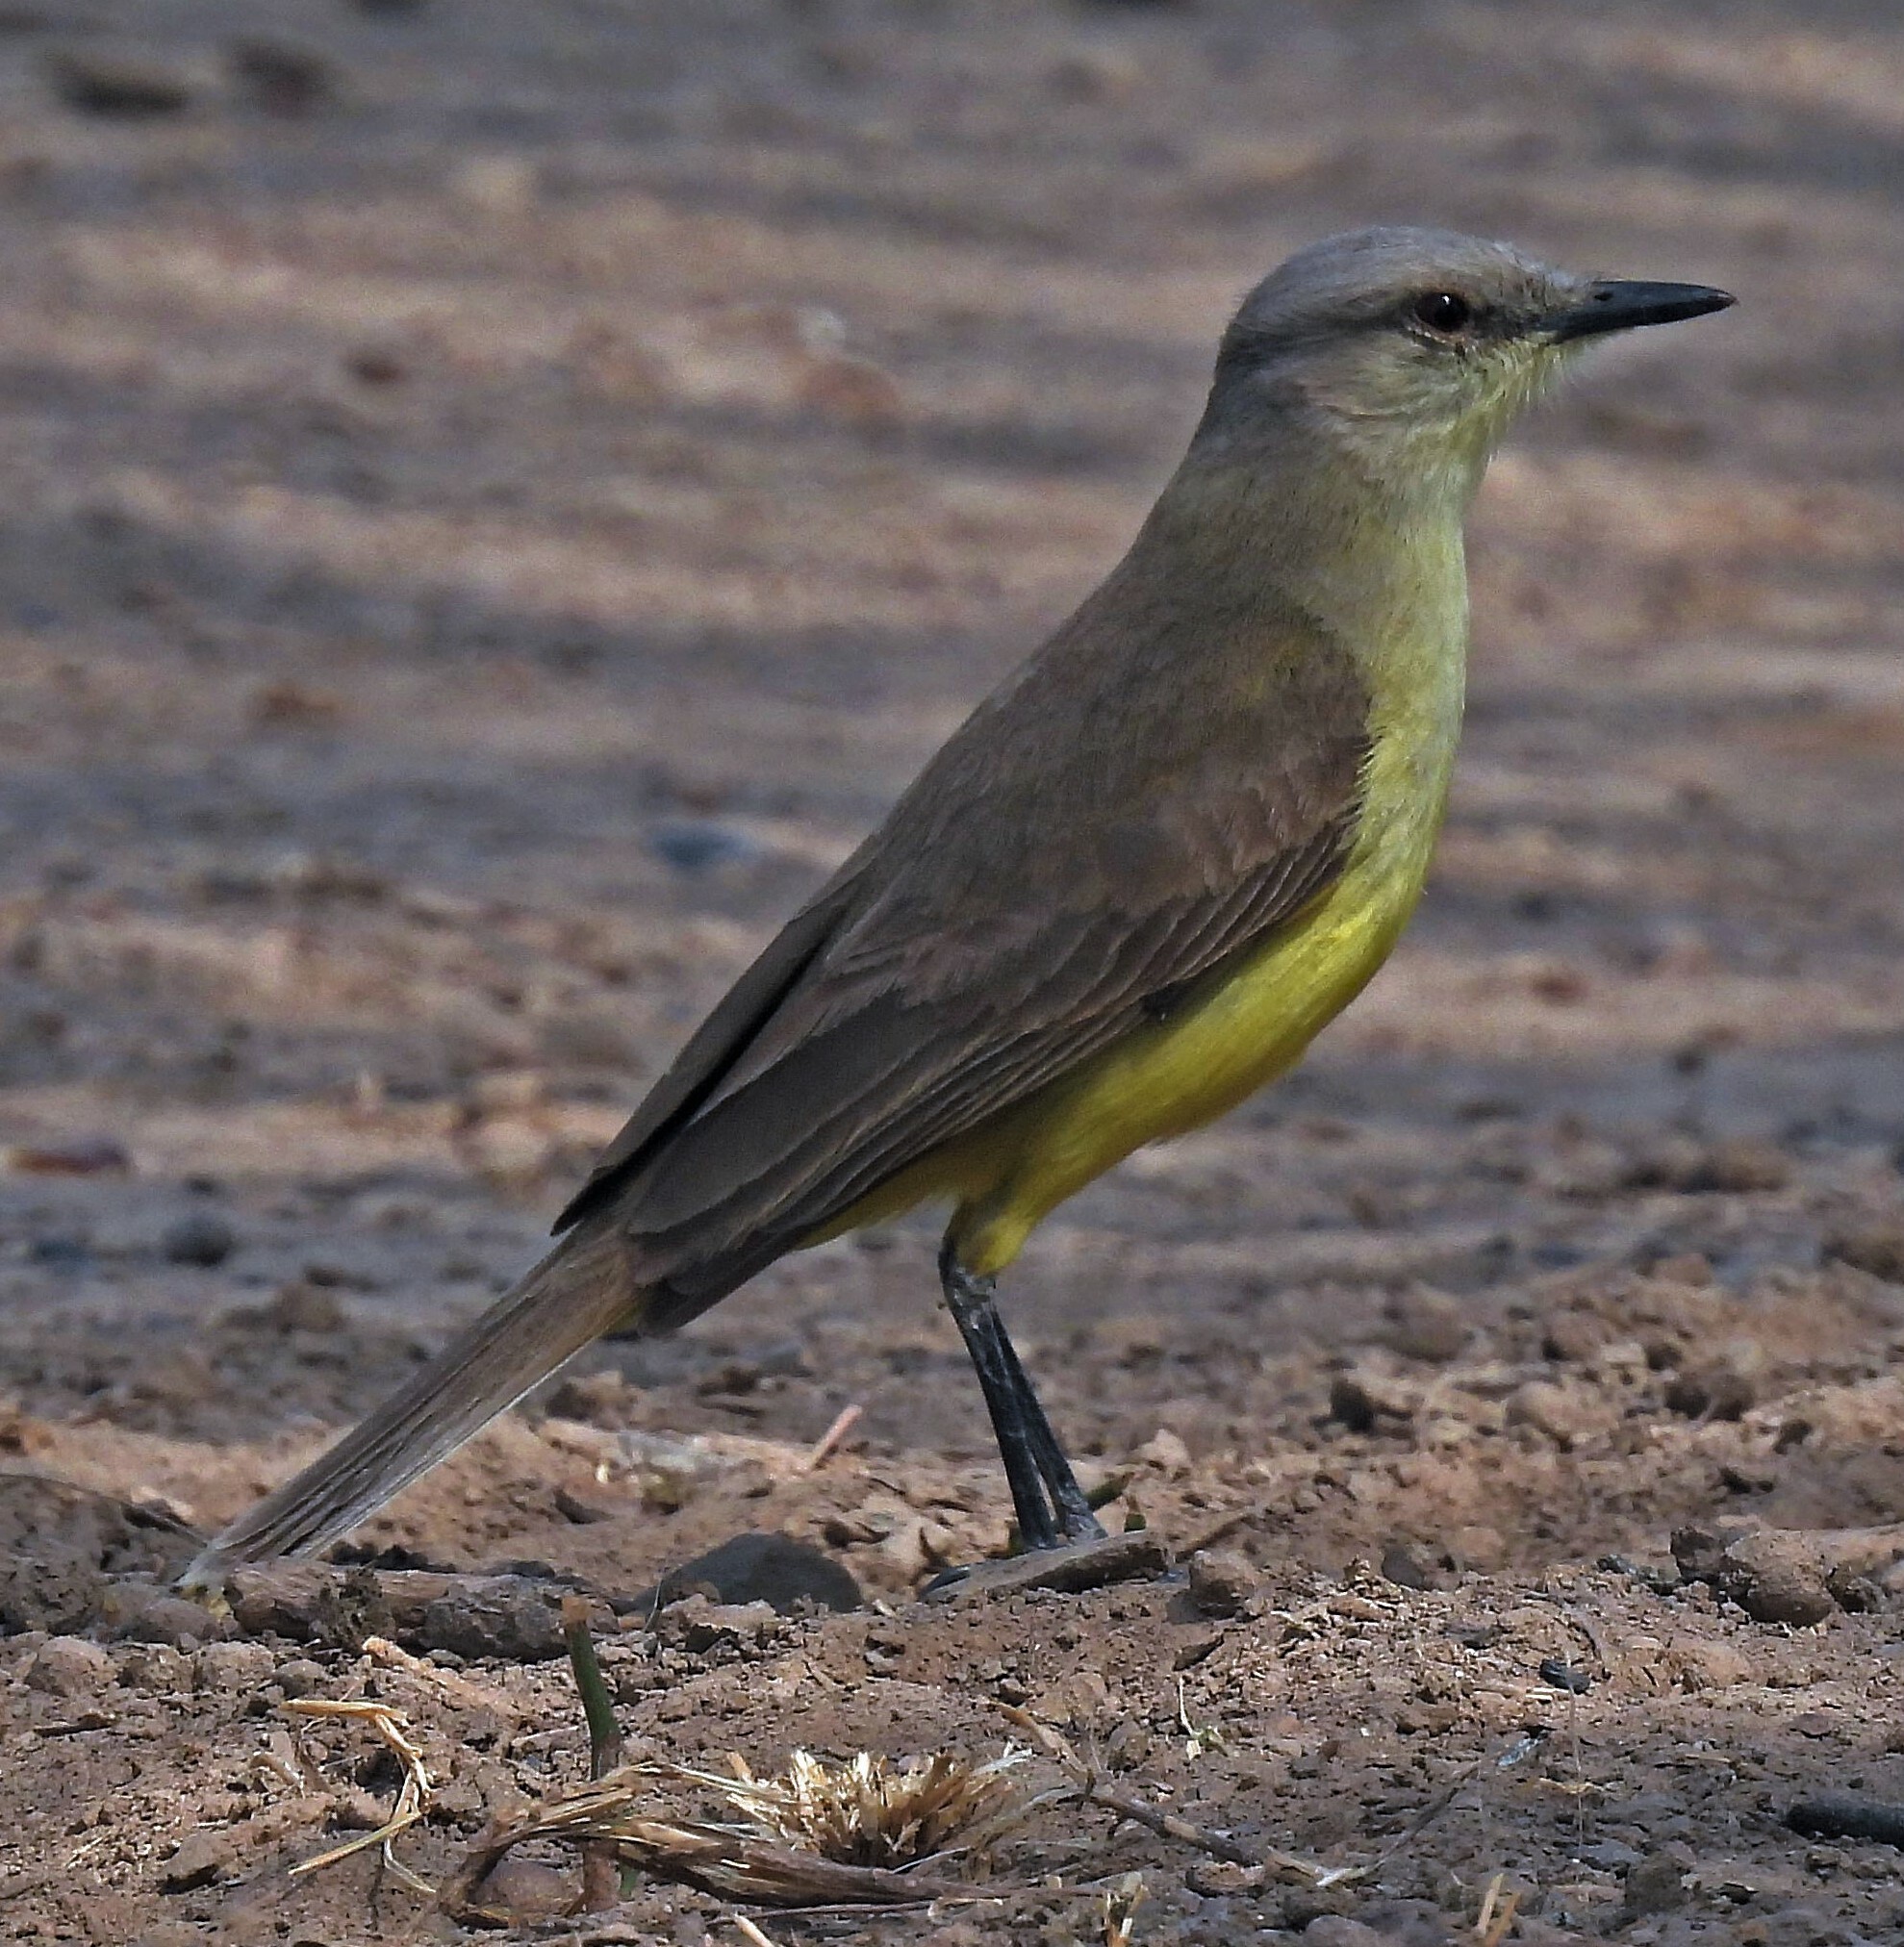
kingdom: Animalia
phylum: Chordata
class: Aves
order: Passeriformes
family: Tyrannidae
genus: Machetornis
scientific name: Machetornis rixosa
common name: Cattle tyrant
